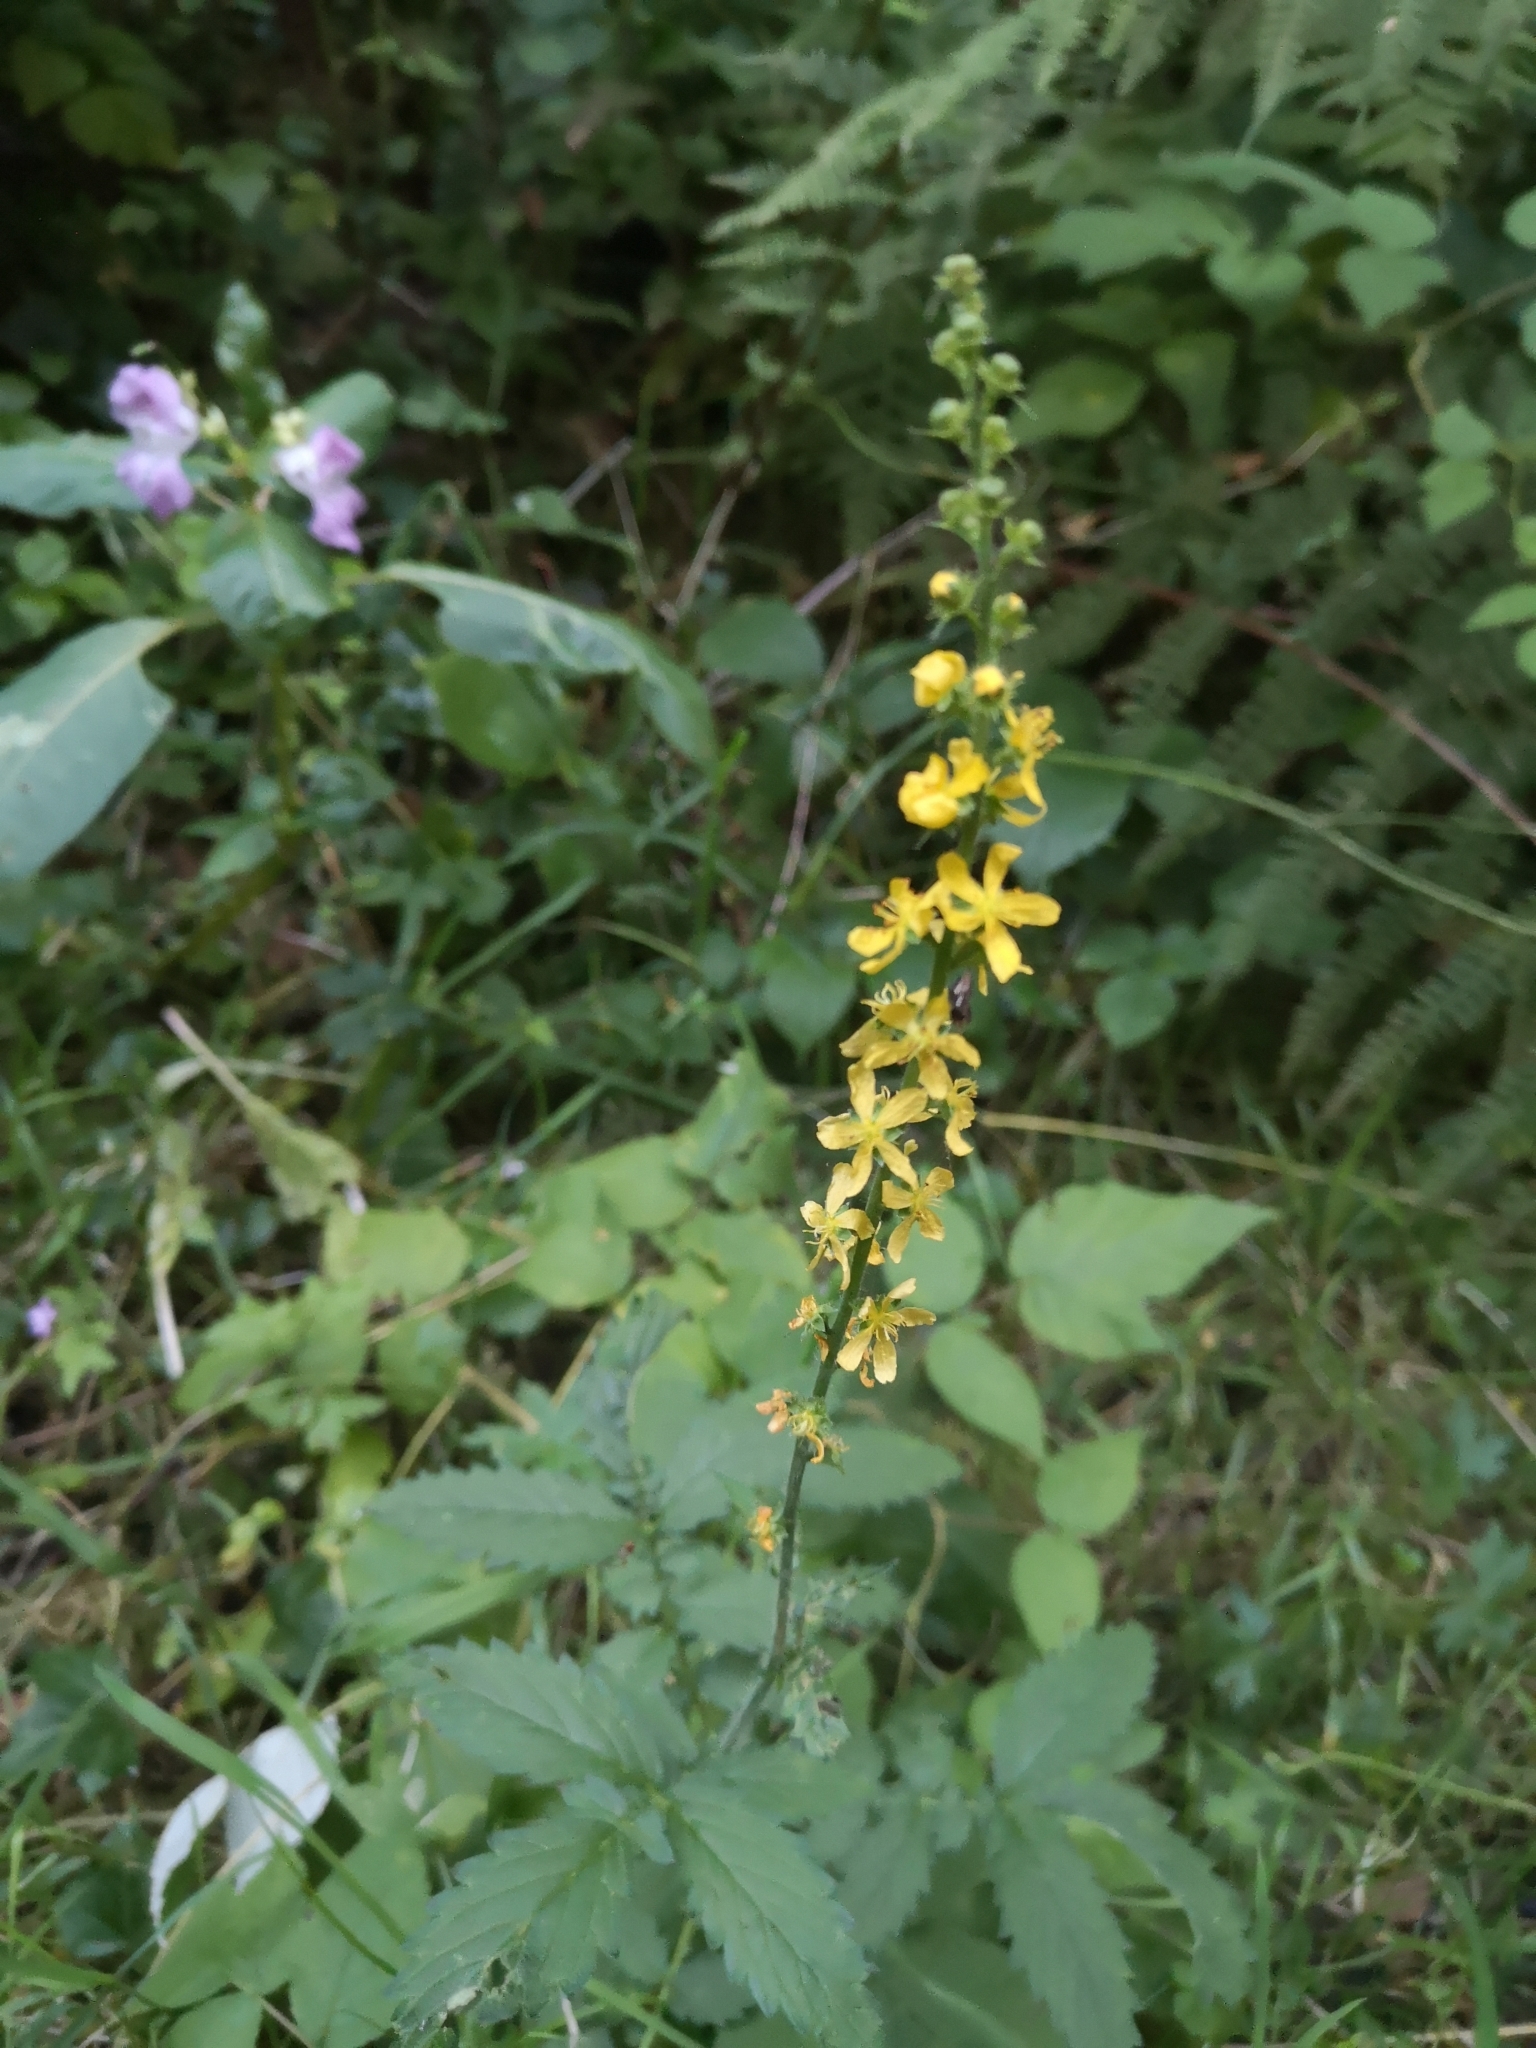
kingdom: Plantae
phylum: Tracheophyta
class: Magnoliopsida
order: Rosales
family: Rosaceae
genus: Agrimonia
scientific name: Agrimonia eupatoria
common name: Agrimony
